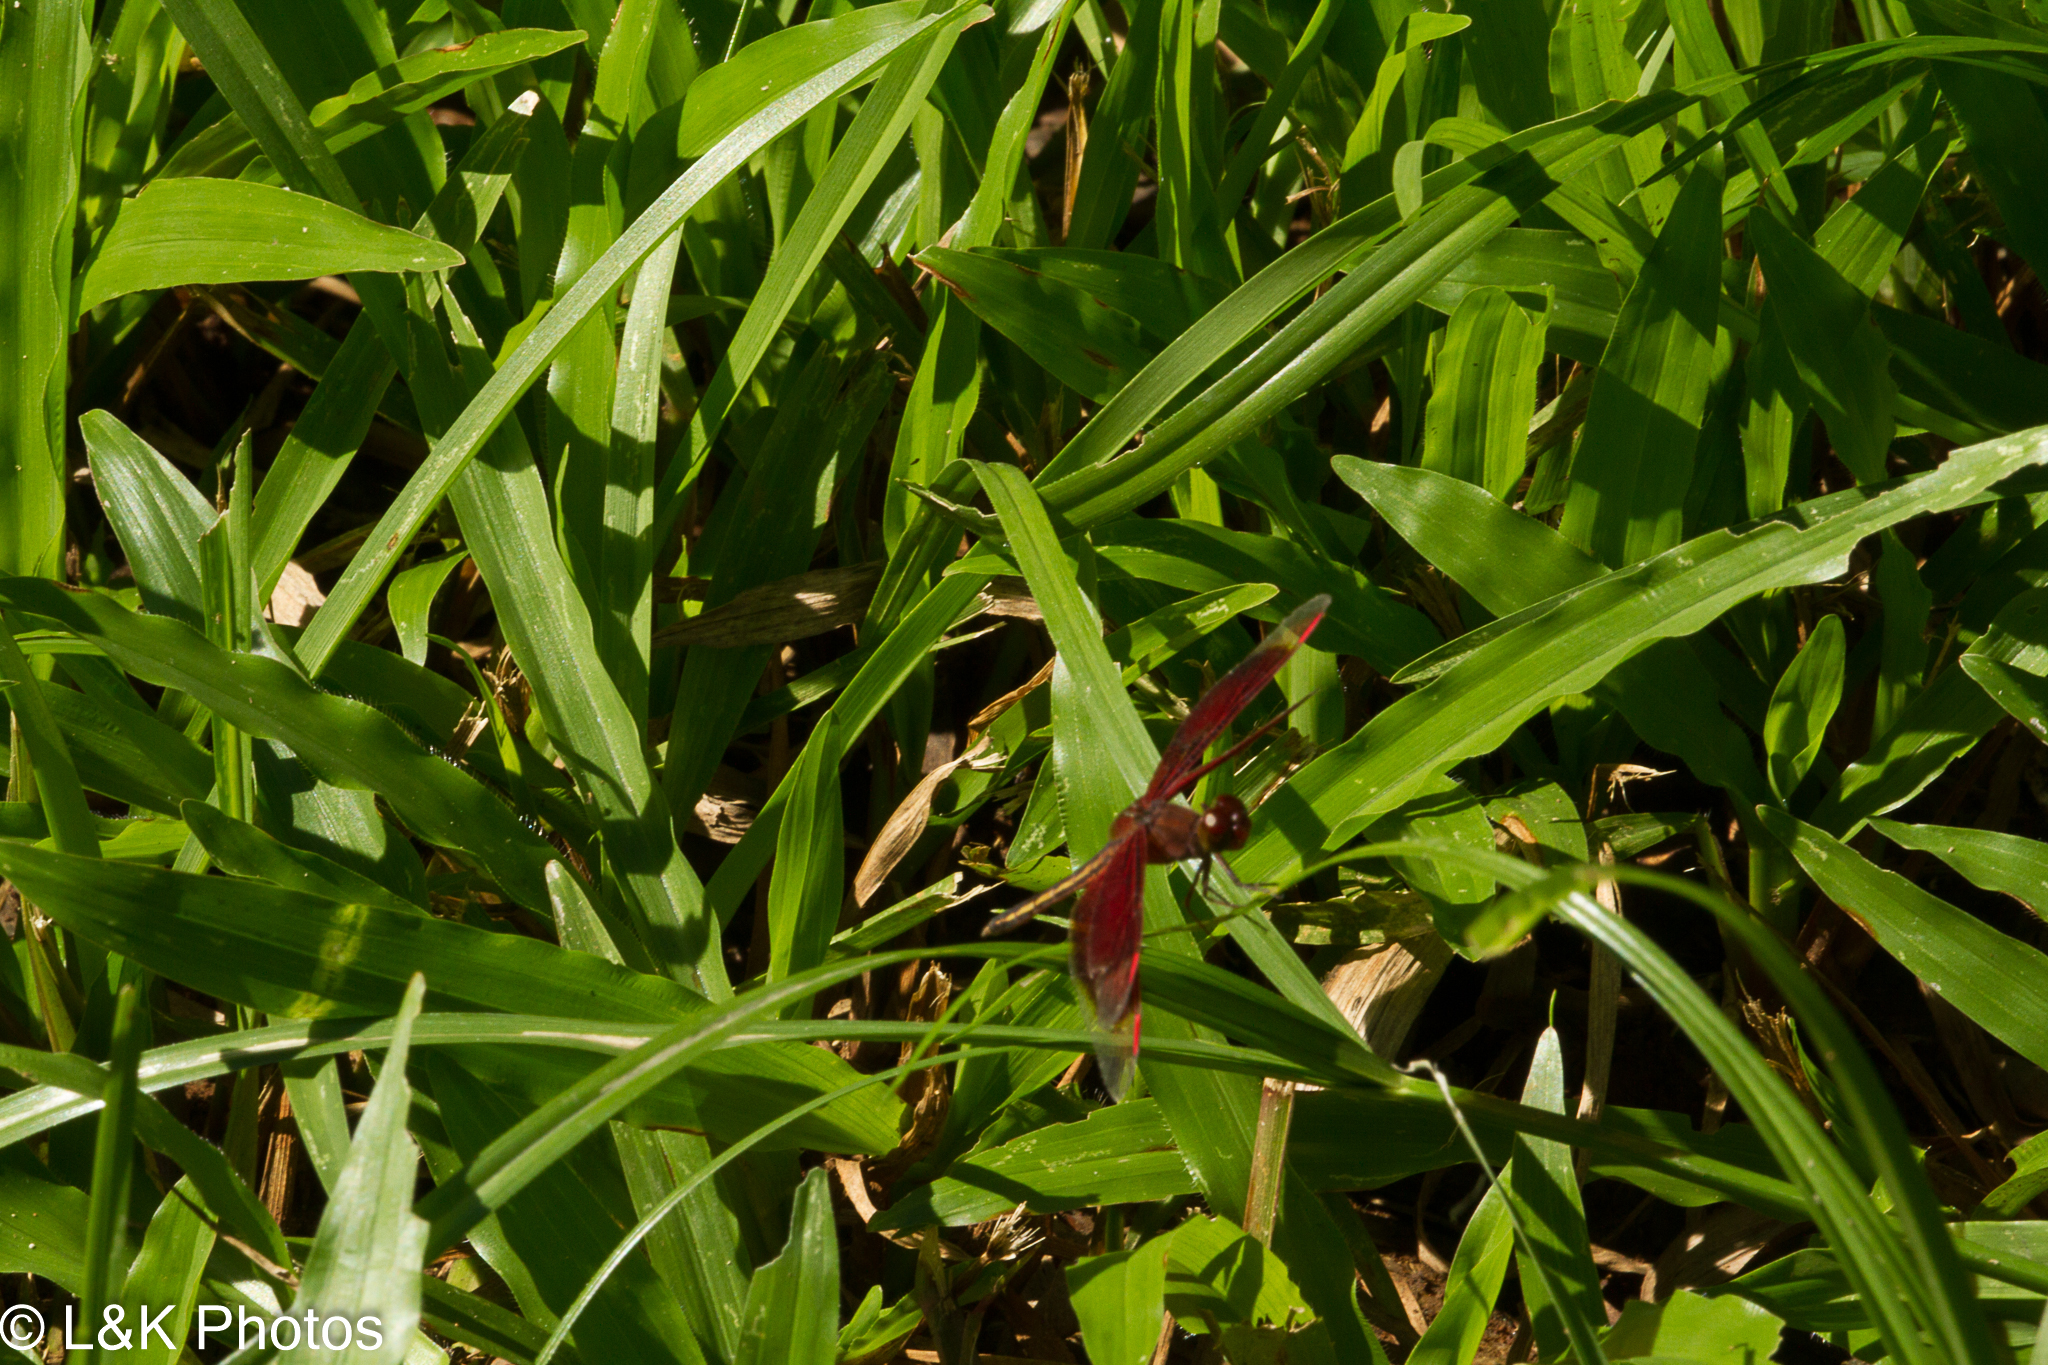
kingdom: Animalia
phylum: Arthropoda
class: Insecta
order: Odonata
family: Libellulidae
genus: Neurothemis
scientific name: Neurothemis stigmatizans
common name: Painted grasshawk
